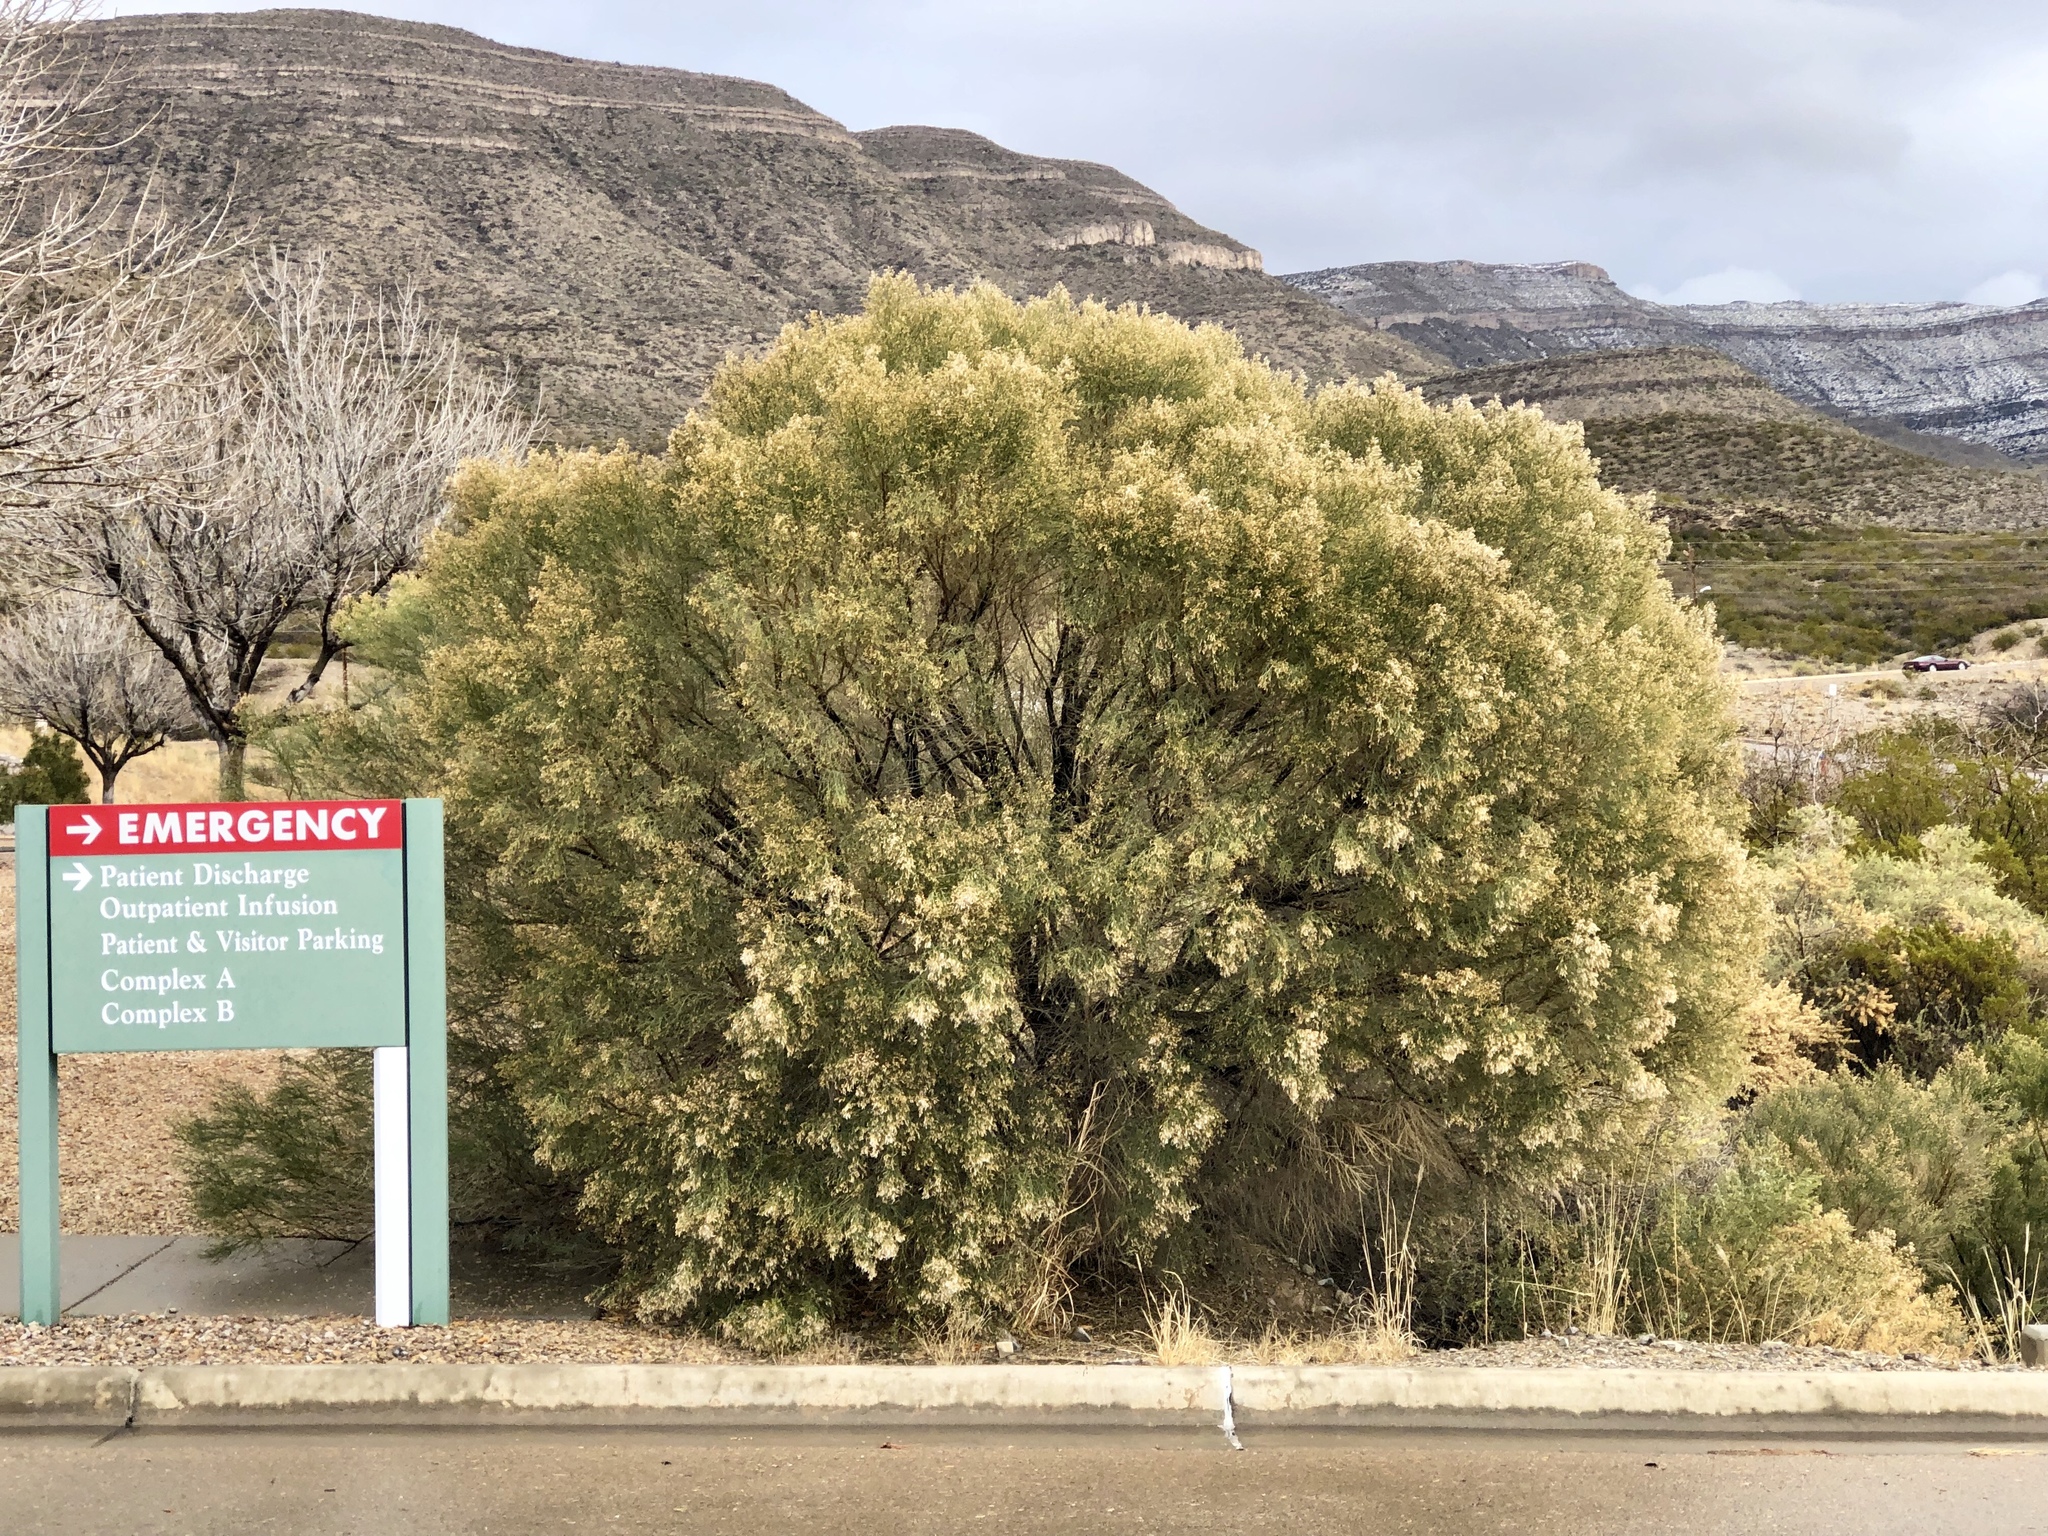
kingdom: Plantae
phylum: Tracheophyta
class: Magnoliopsida
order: Asterales
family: Asteraceae
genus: Baccharis
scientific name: Baccharis sarothroides
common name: Desert-broom
